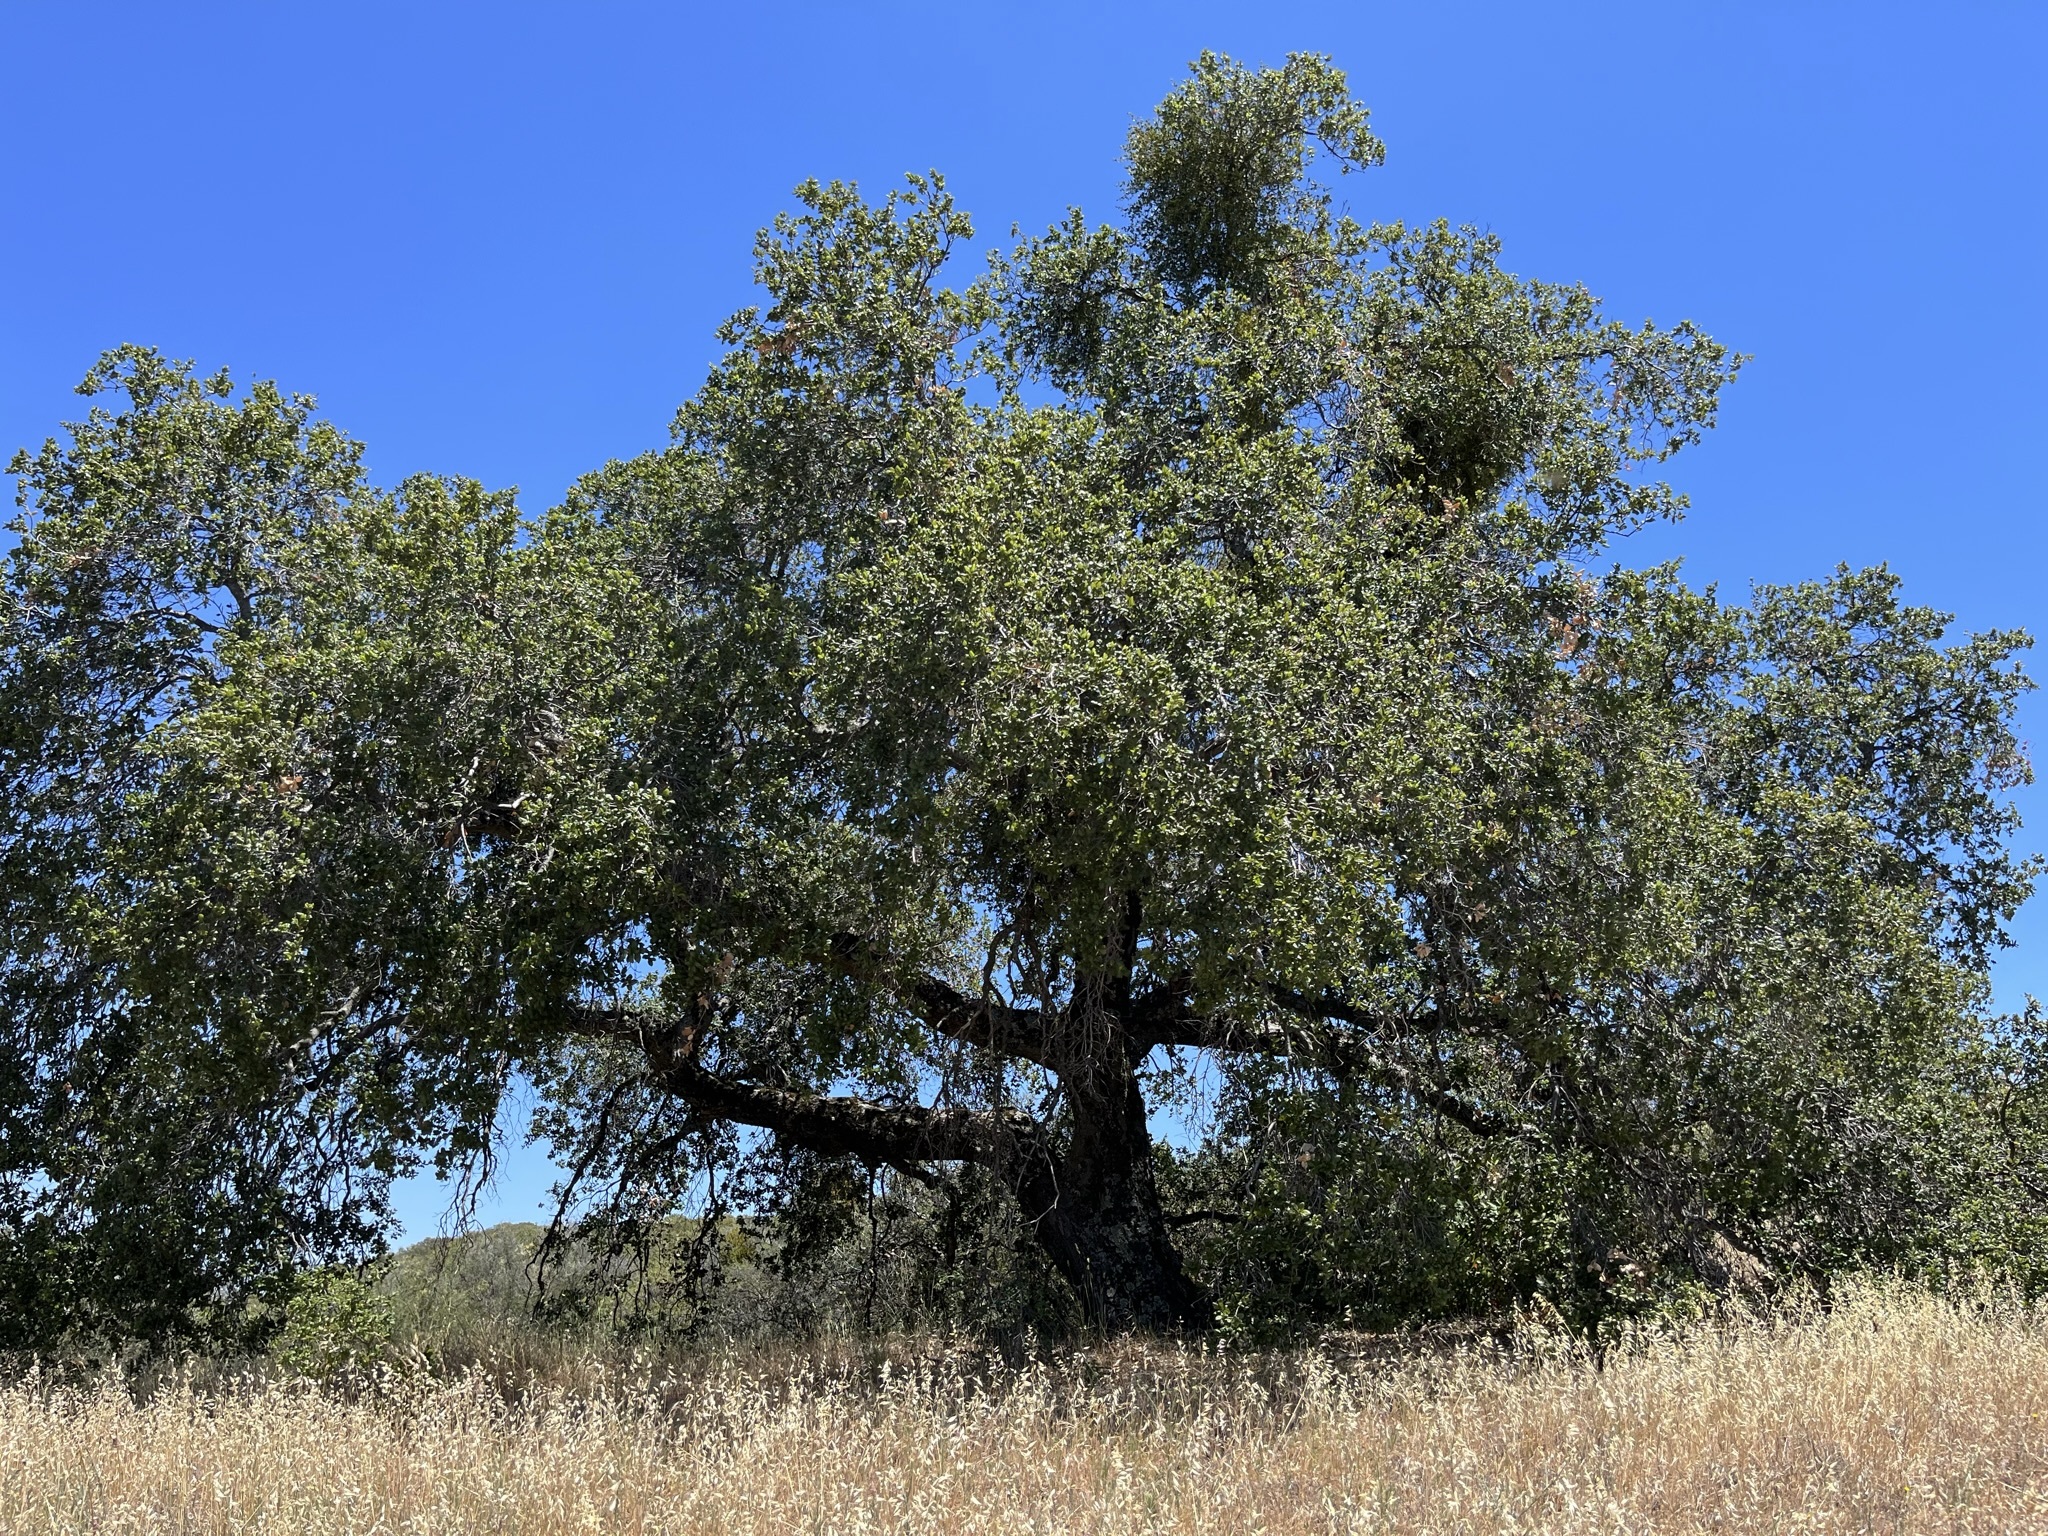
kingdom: Plantae
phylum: Tracheophyta
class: Magnoliopsida
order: Fagales
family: Fagaceae
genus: Quercus
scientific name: Quercus agrifolia
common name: California live oak
